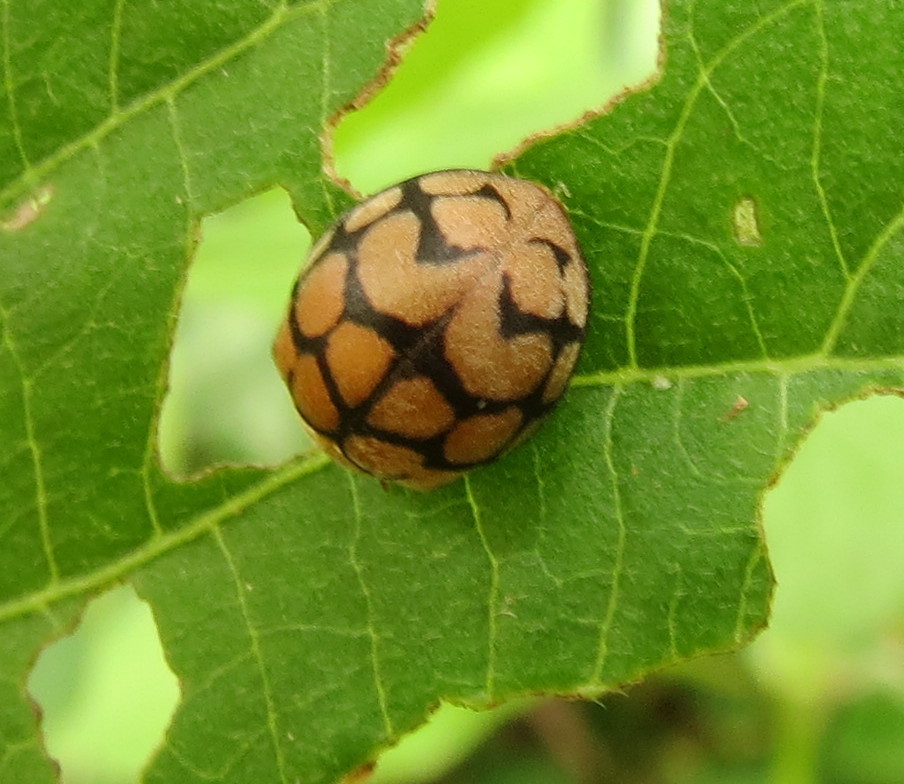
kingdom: Animalia
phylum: Arthropoda
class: Insecta
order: Coleoptera
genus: Solanophila
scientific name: Solanophila
